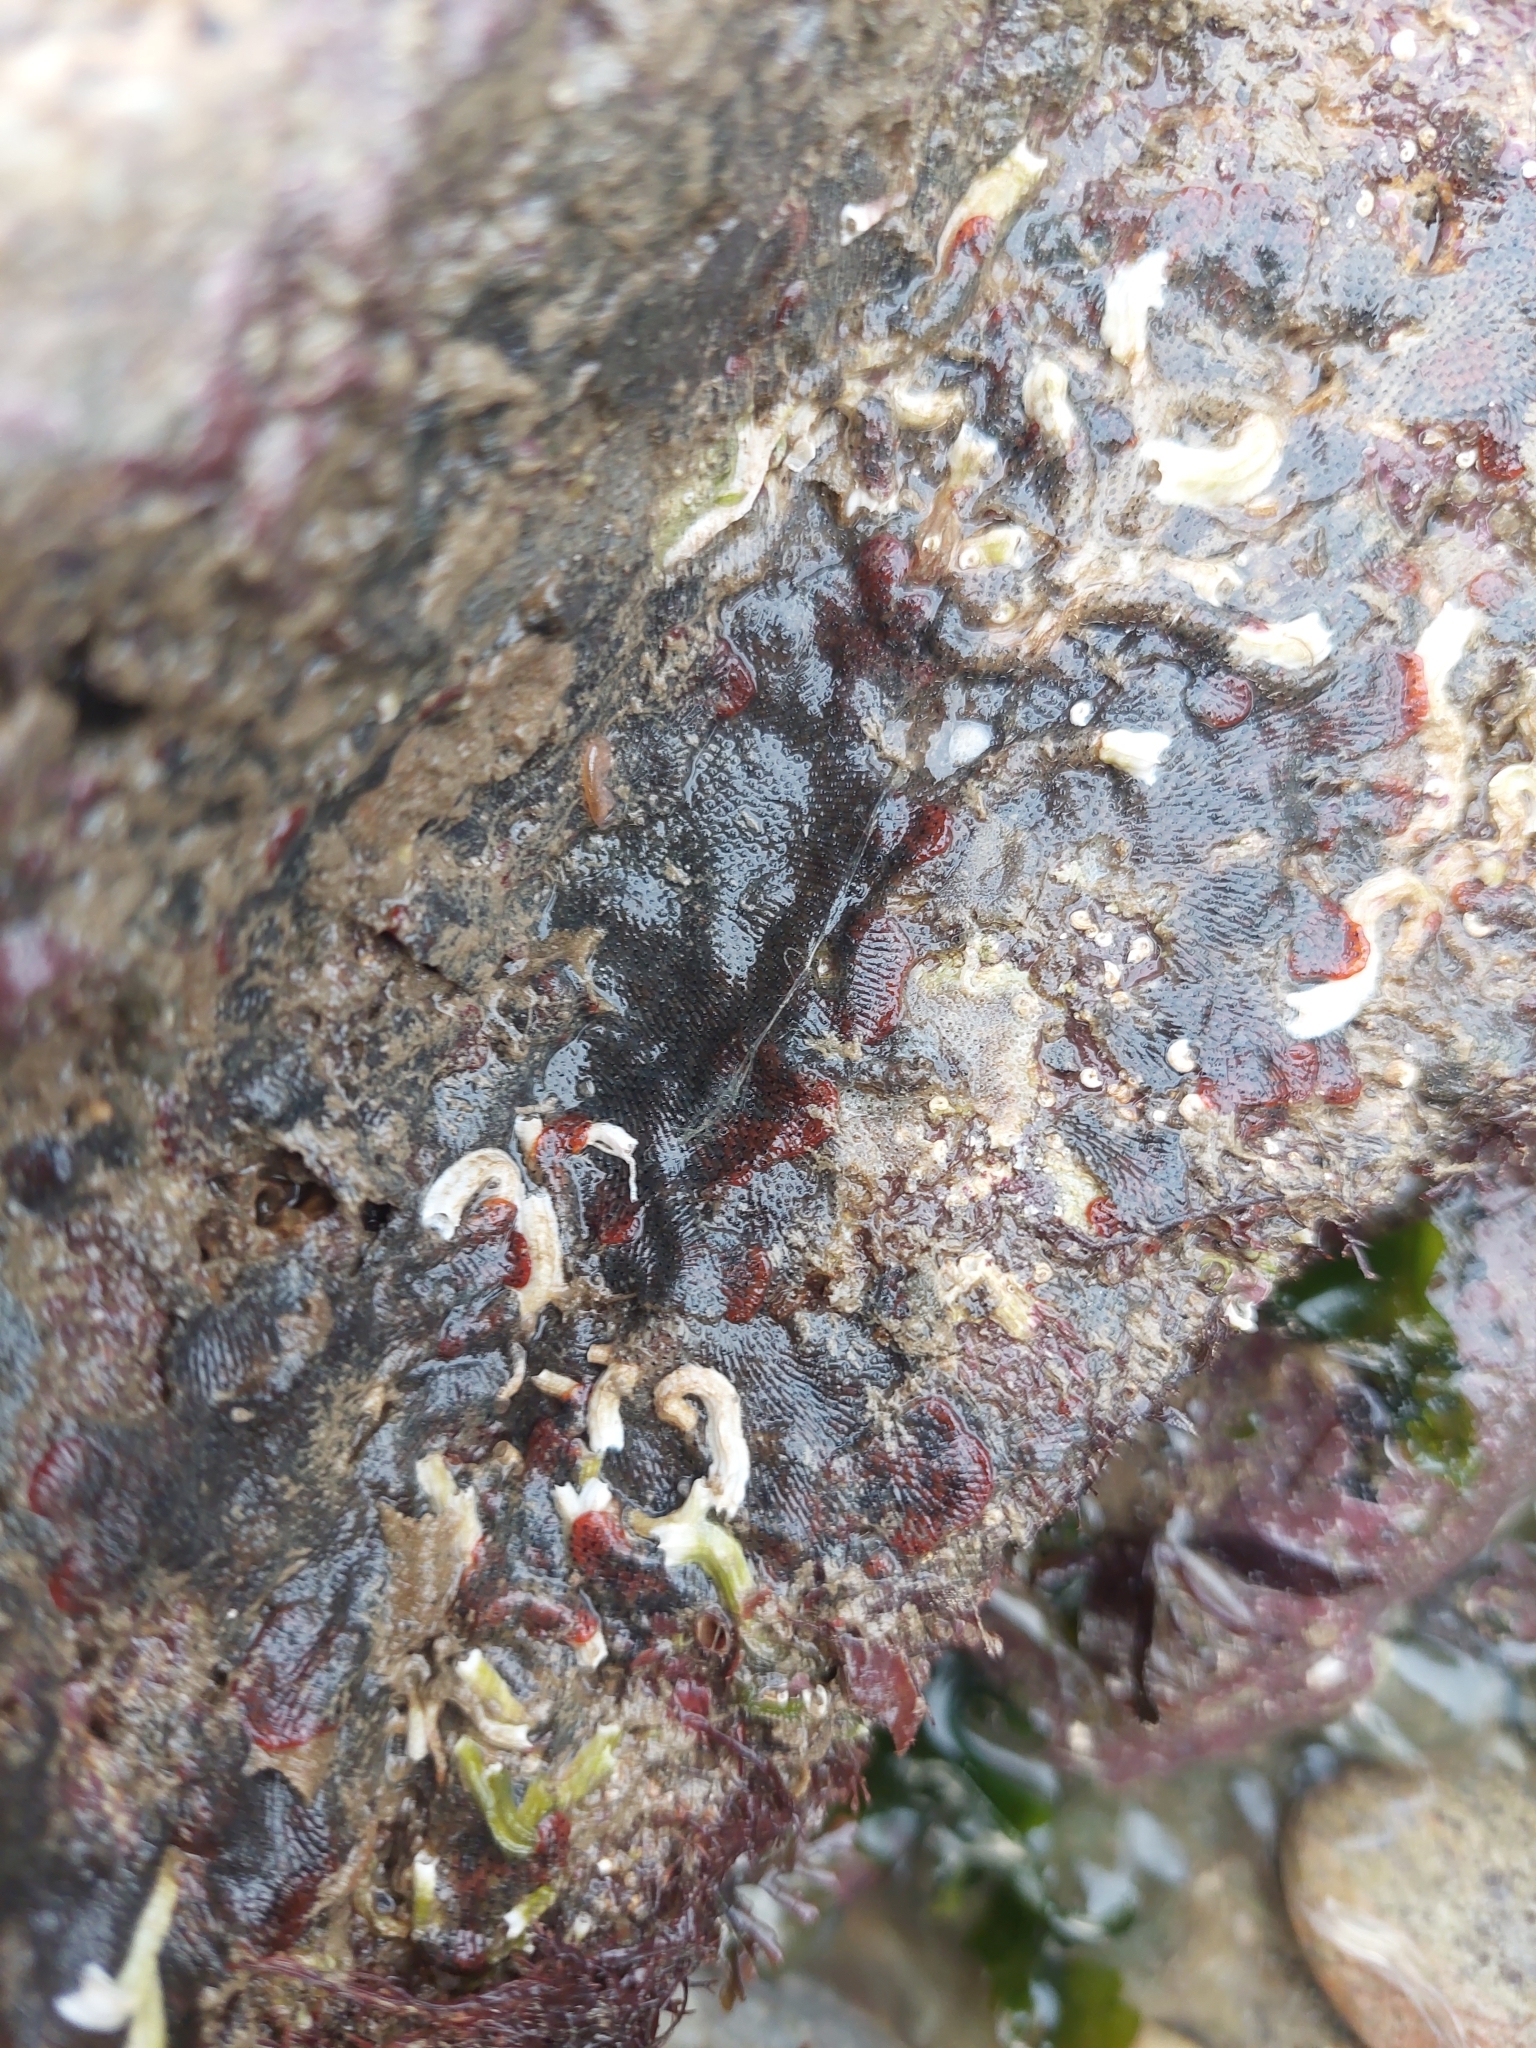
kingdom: Animalia
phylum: Bryozoa
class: Gymnolaemata
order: Cheilostomatida
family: Watersiporidae
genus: Watersipora
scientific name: Watersipora subatra
